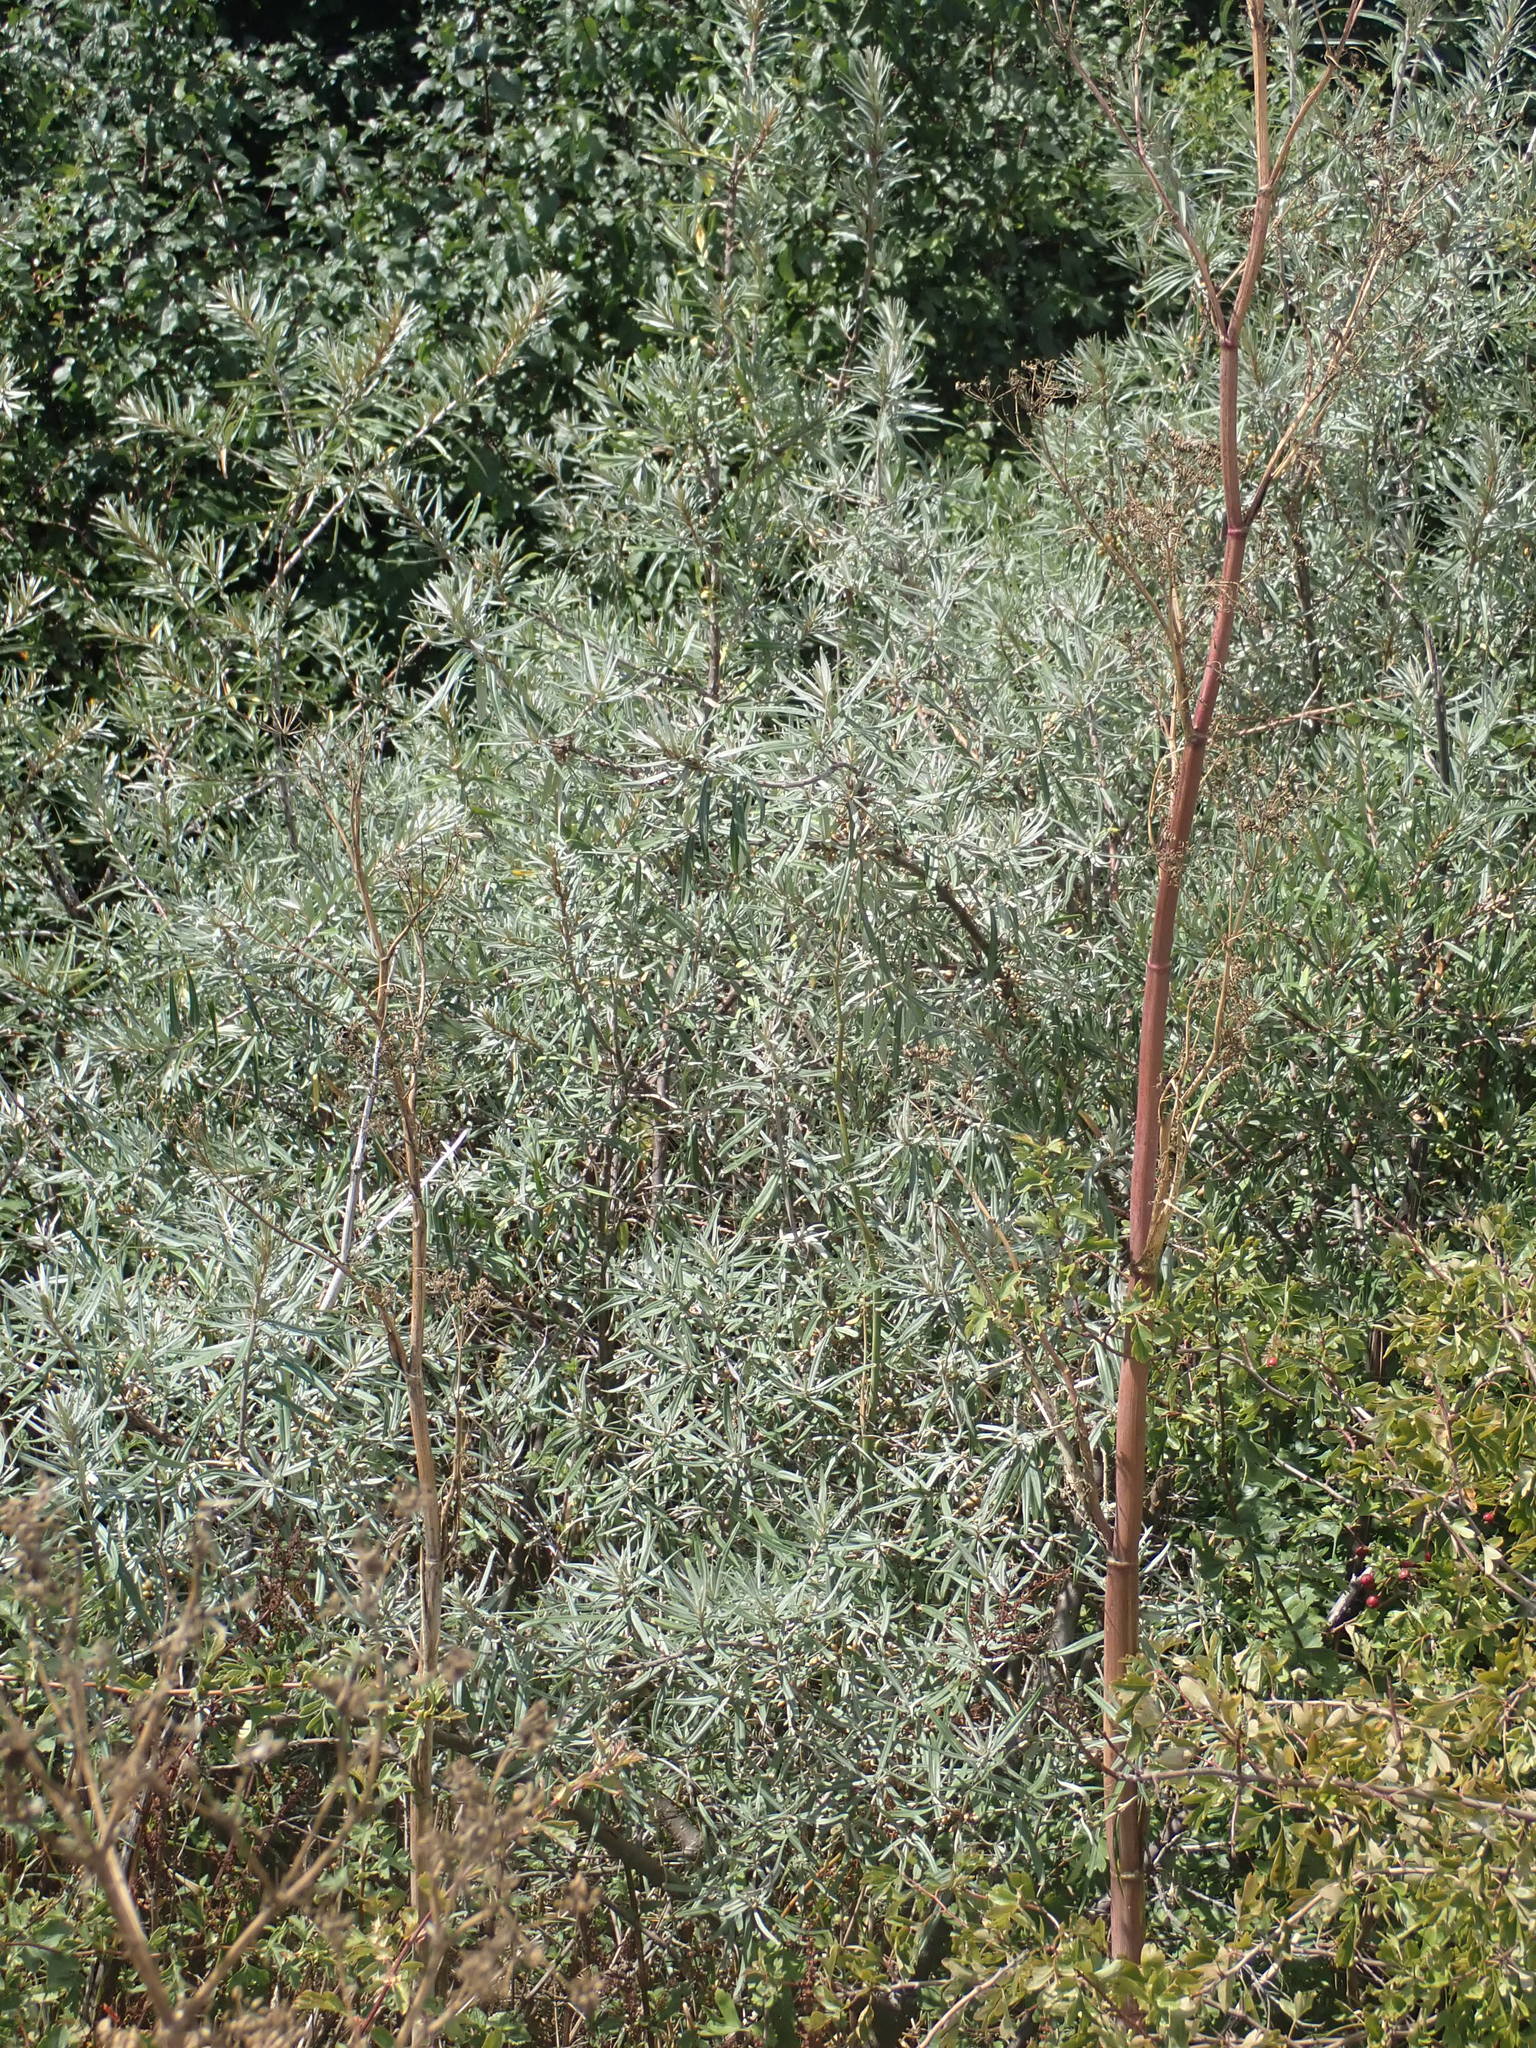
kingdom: Plantae
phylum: Tracheophyta
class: Magnoliopsida
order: Rosales
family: Elaeagnaceae
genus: Hippophae
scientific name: Hippophae rhamnoides
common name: Sea-buckthorn
